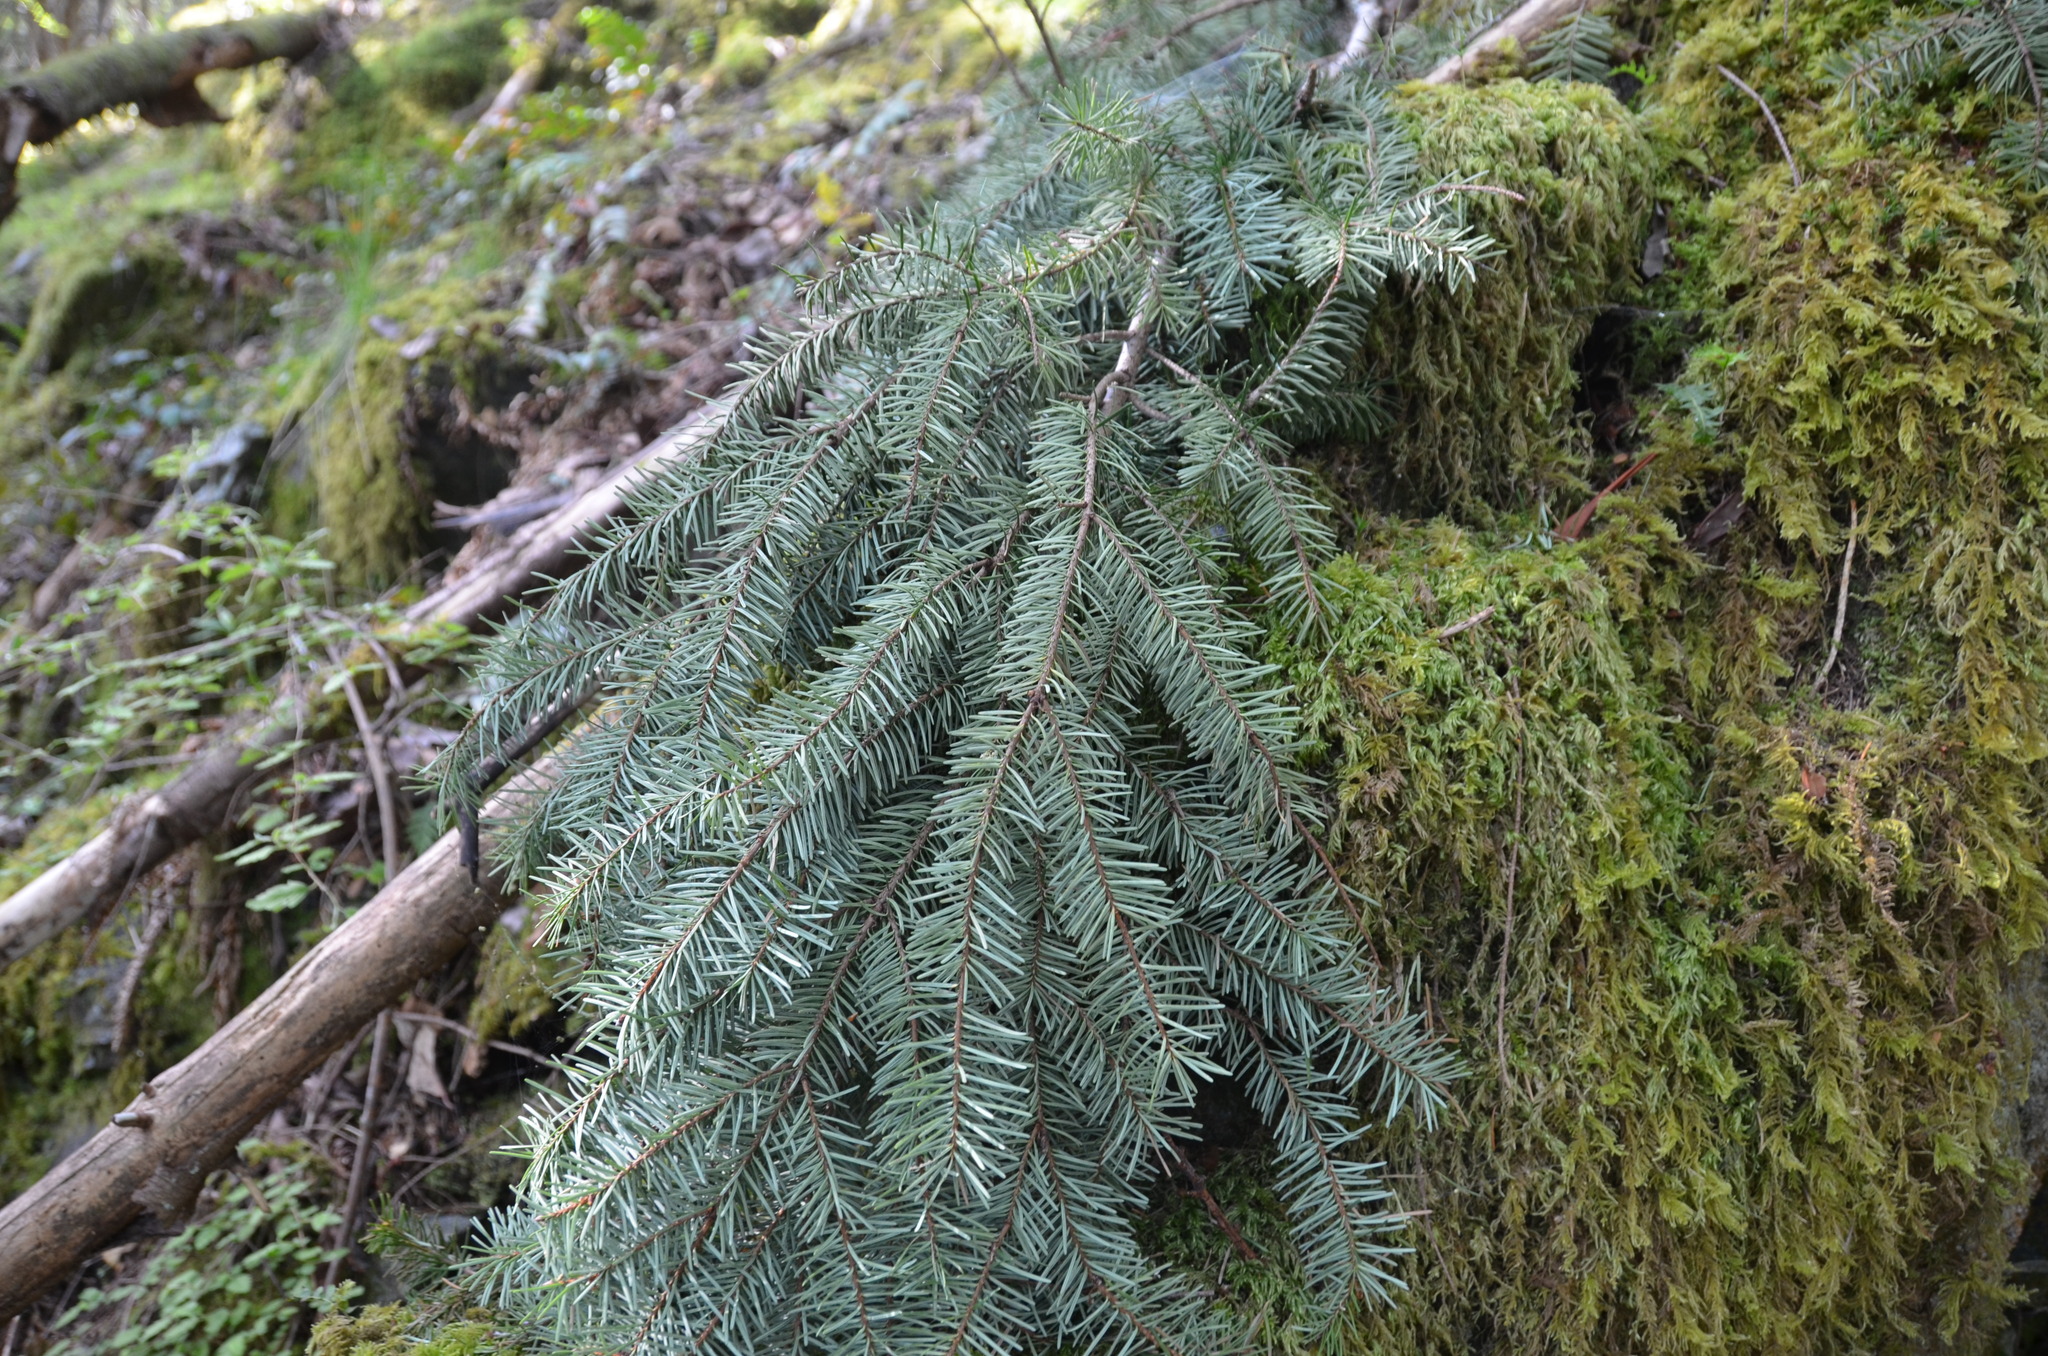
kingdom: Plantae
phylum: Tracheophyta
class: Pinopsida
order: Pinales
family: Pinaceae
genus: Pseudotsuga
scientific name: Pseudotsuga menziesii
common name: Douglas fir
